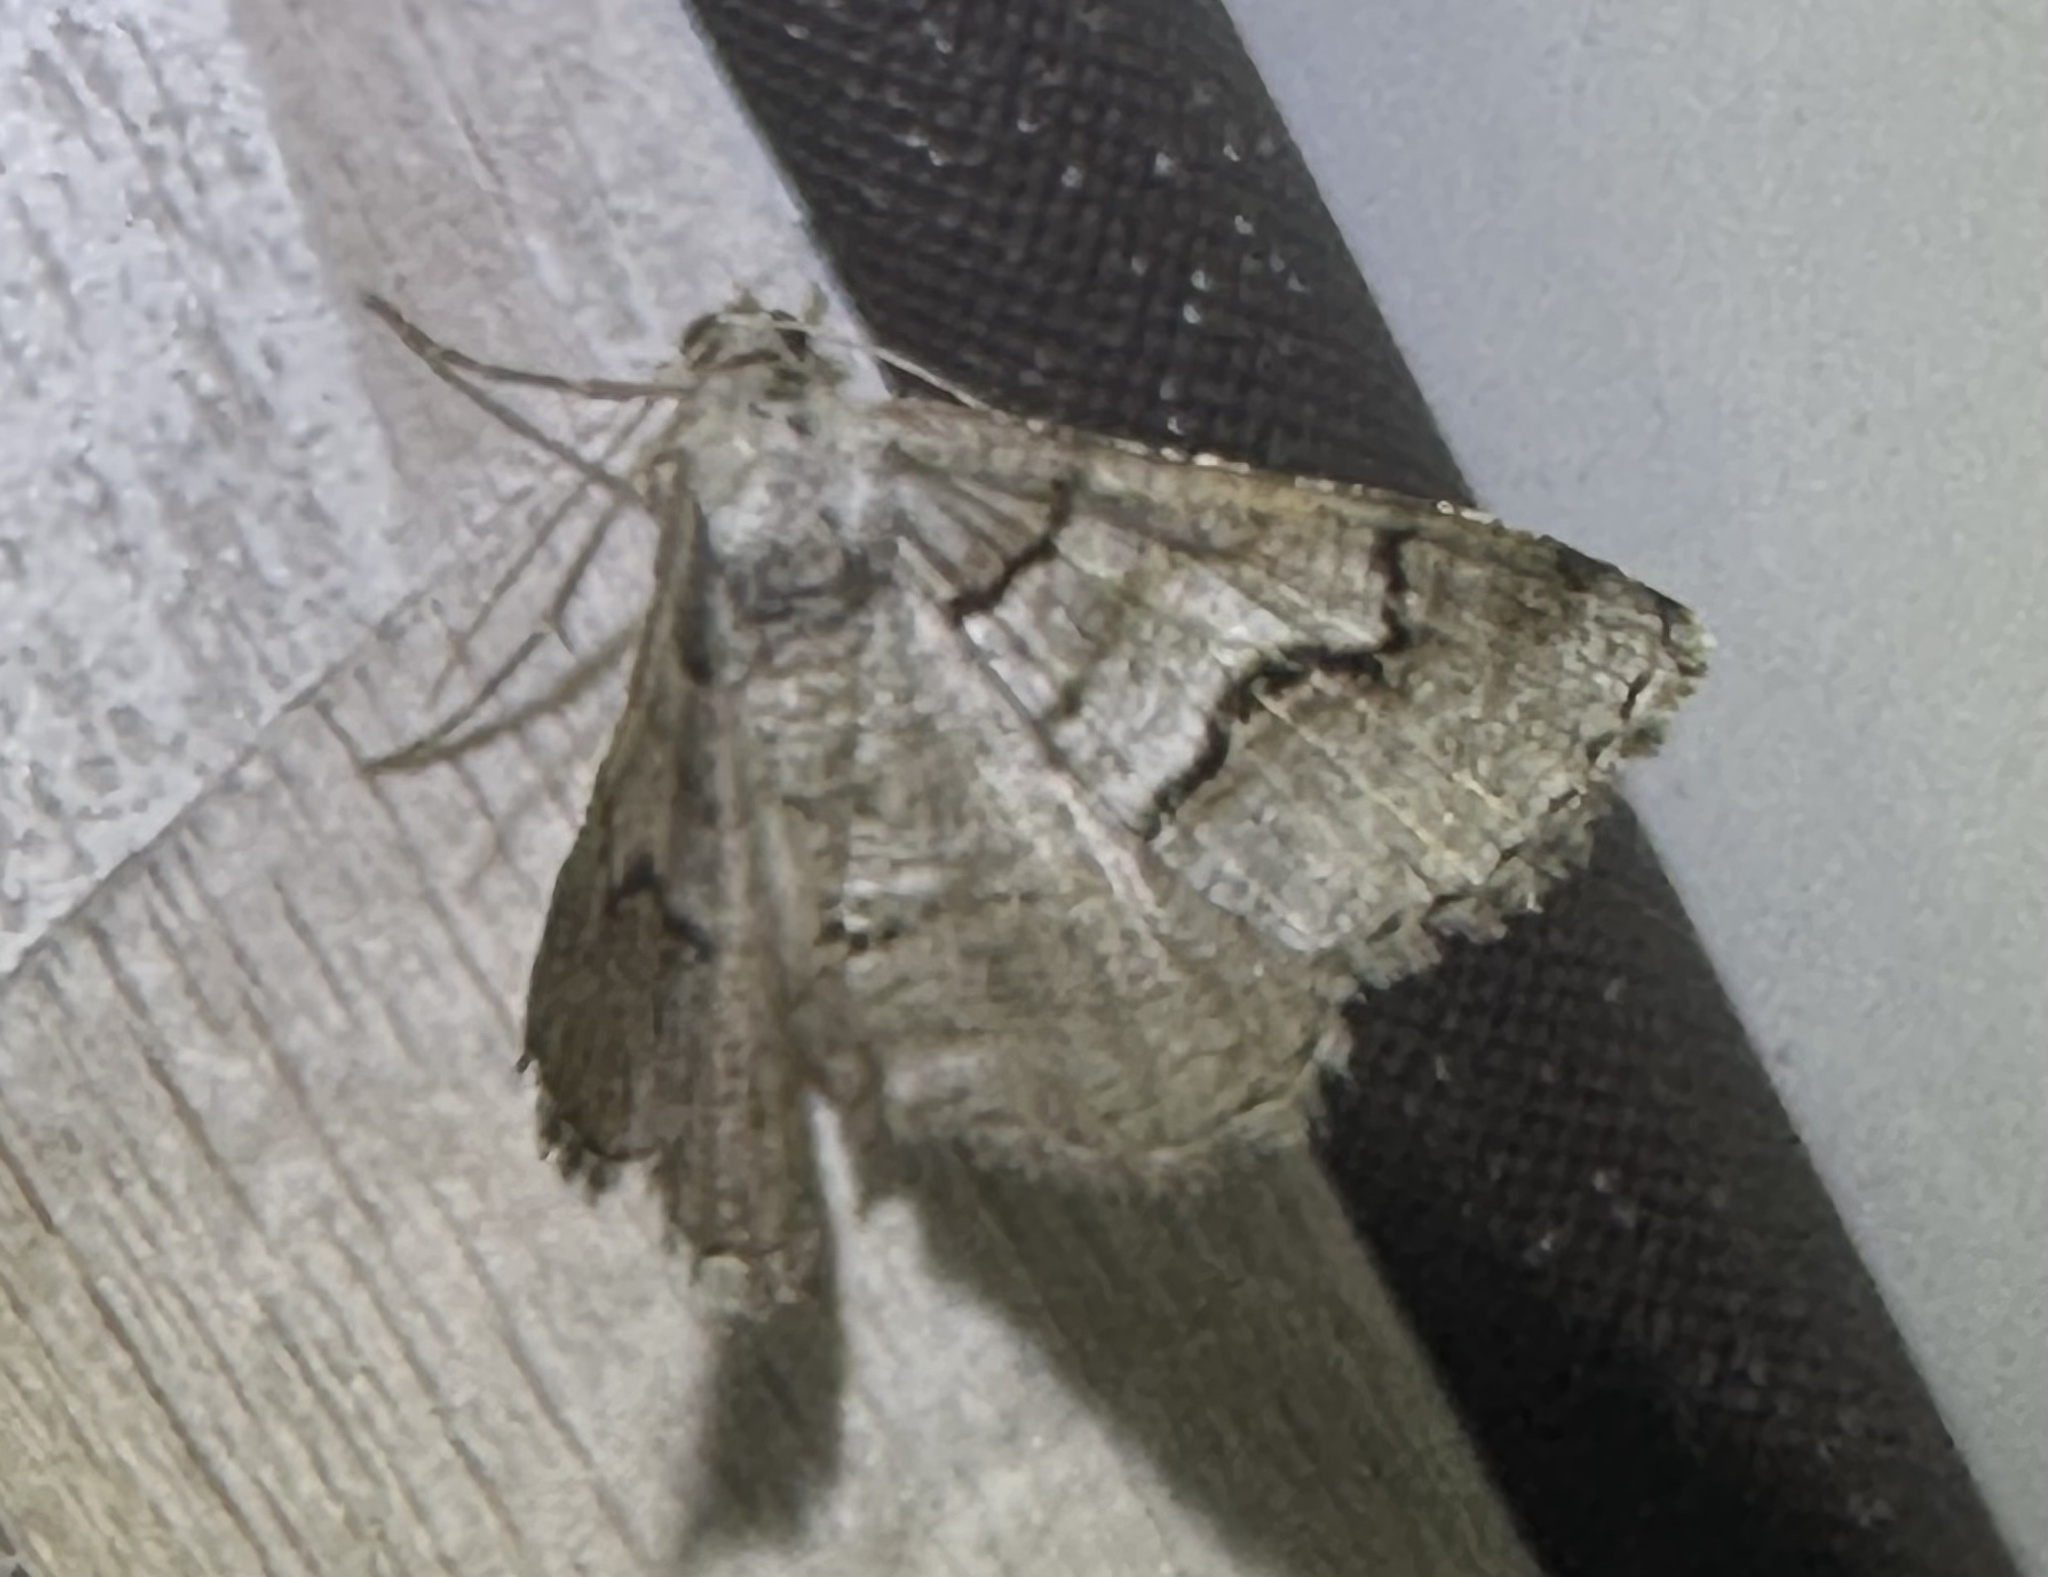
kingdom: Animalia
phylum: Arthropoda
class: Insecta
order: Lepidoptera
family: Geometridae
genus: Digrammia
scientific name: Digrammia continuata
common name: Curve-lined angle
